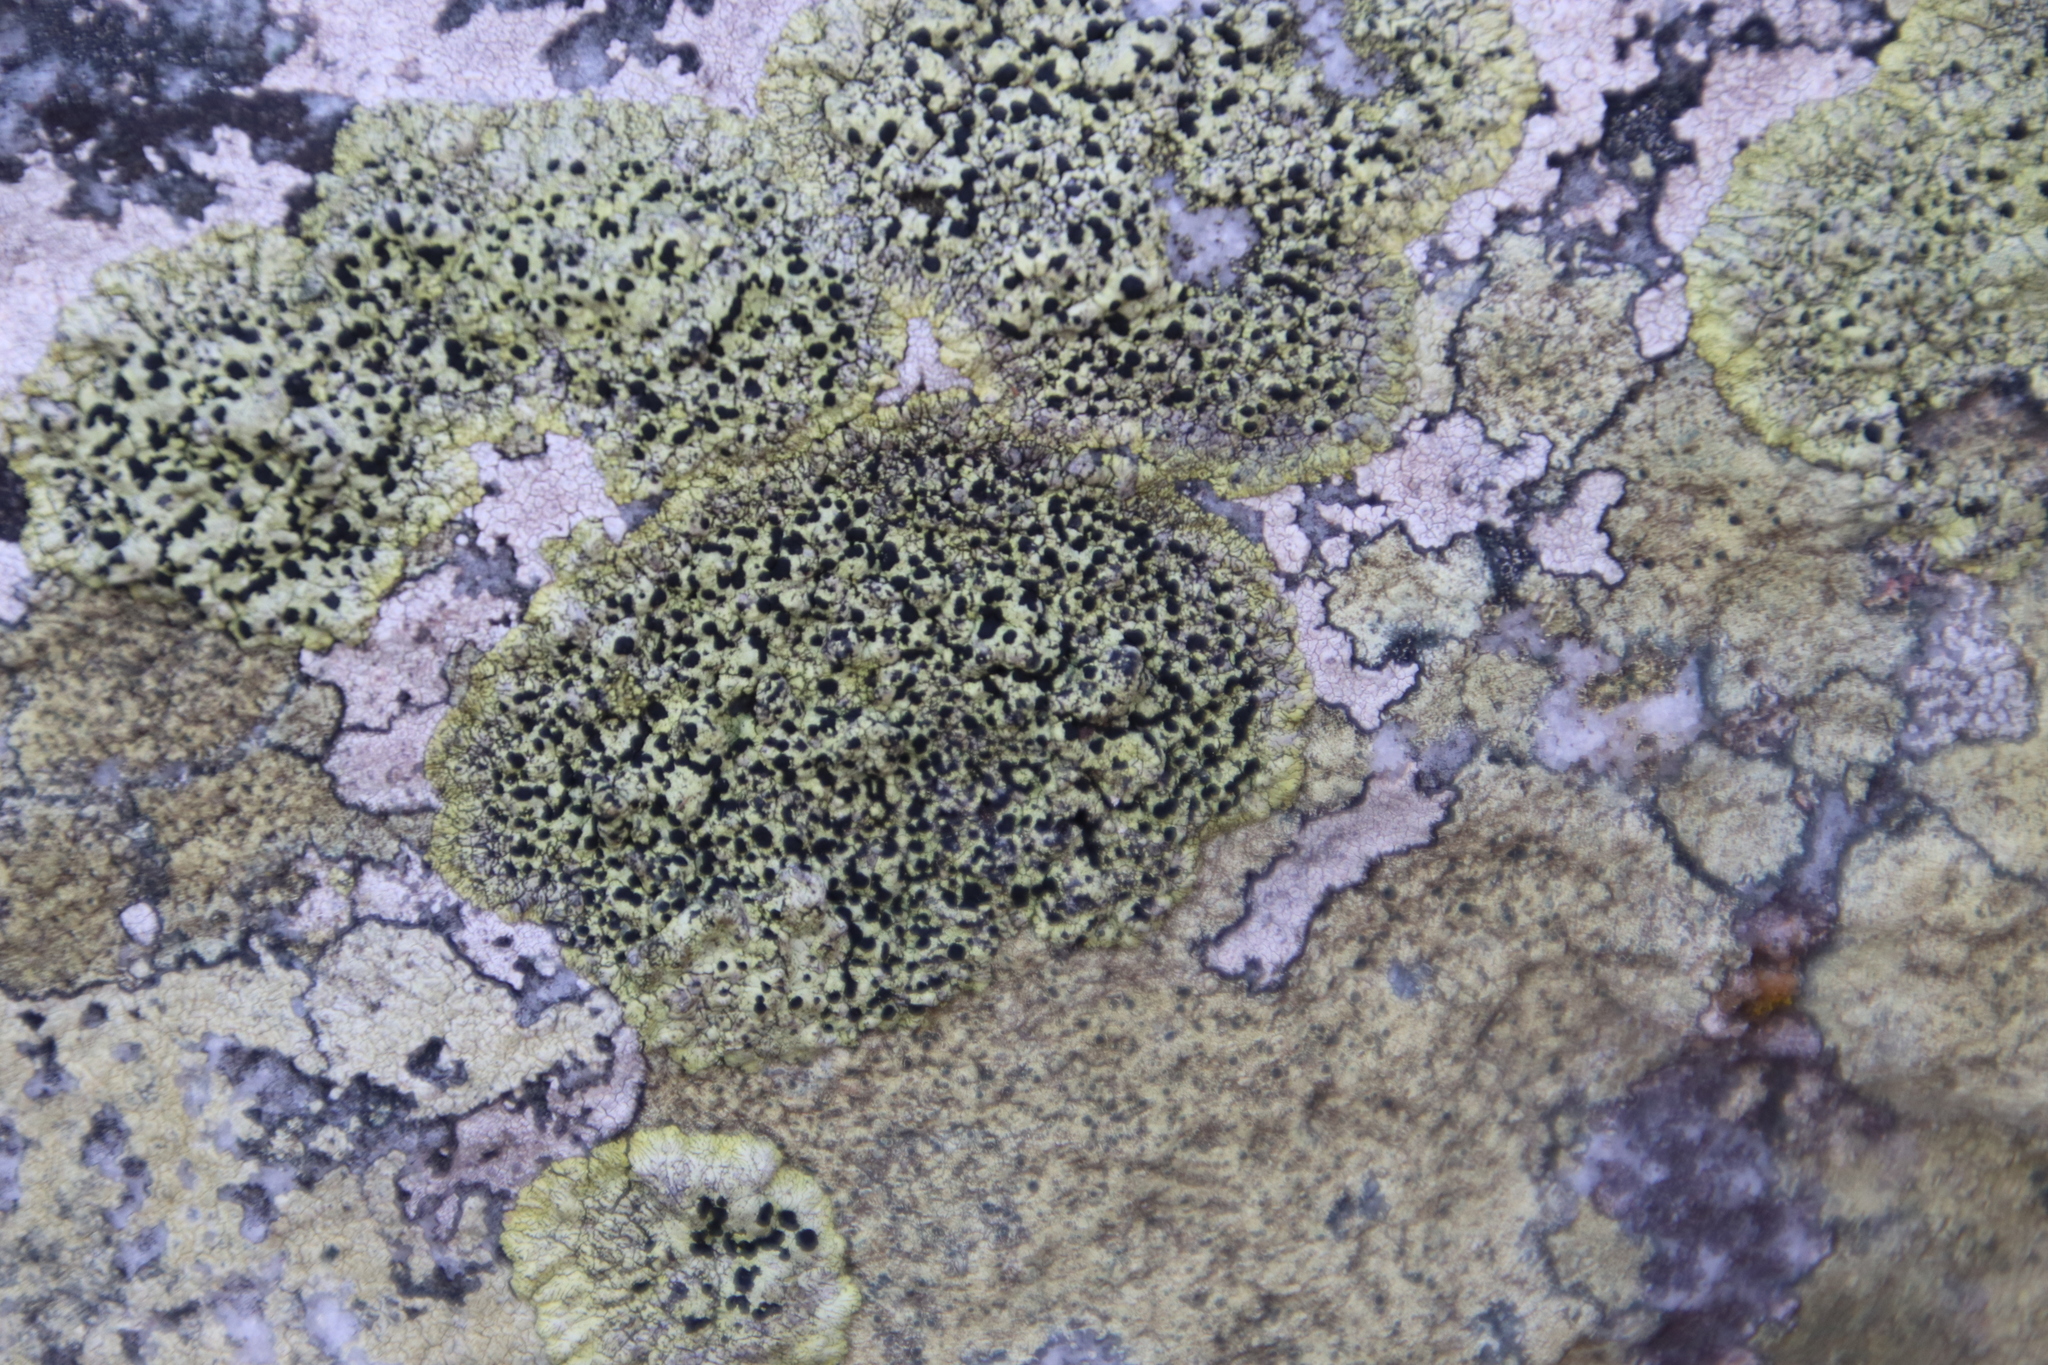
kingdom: Fungi
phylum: Ascomycota
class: Lecanoromycetes
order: Caliciales
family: Caliciaceae
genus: Diploicia
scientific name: Diploicia africana
